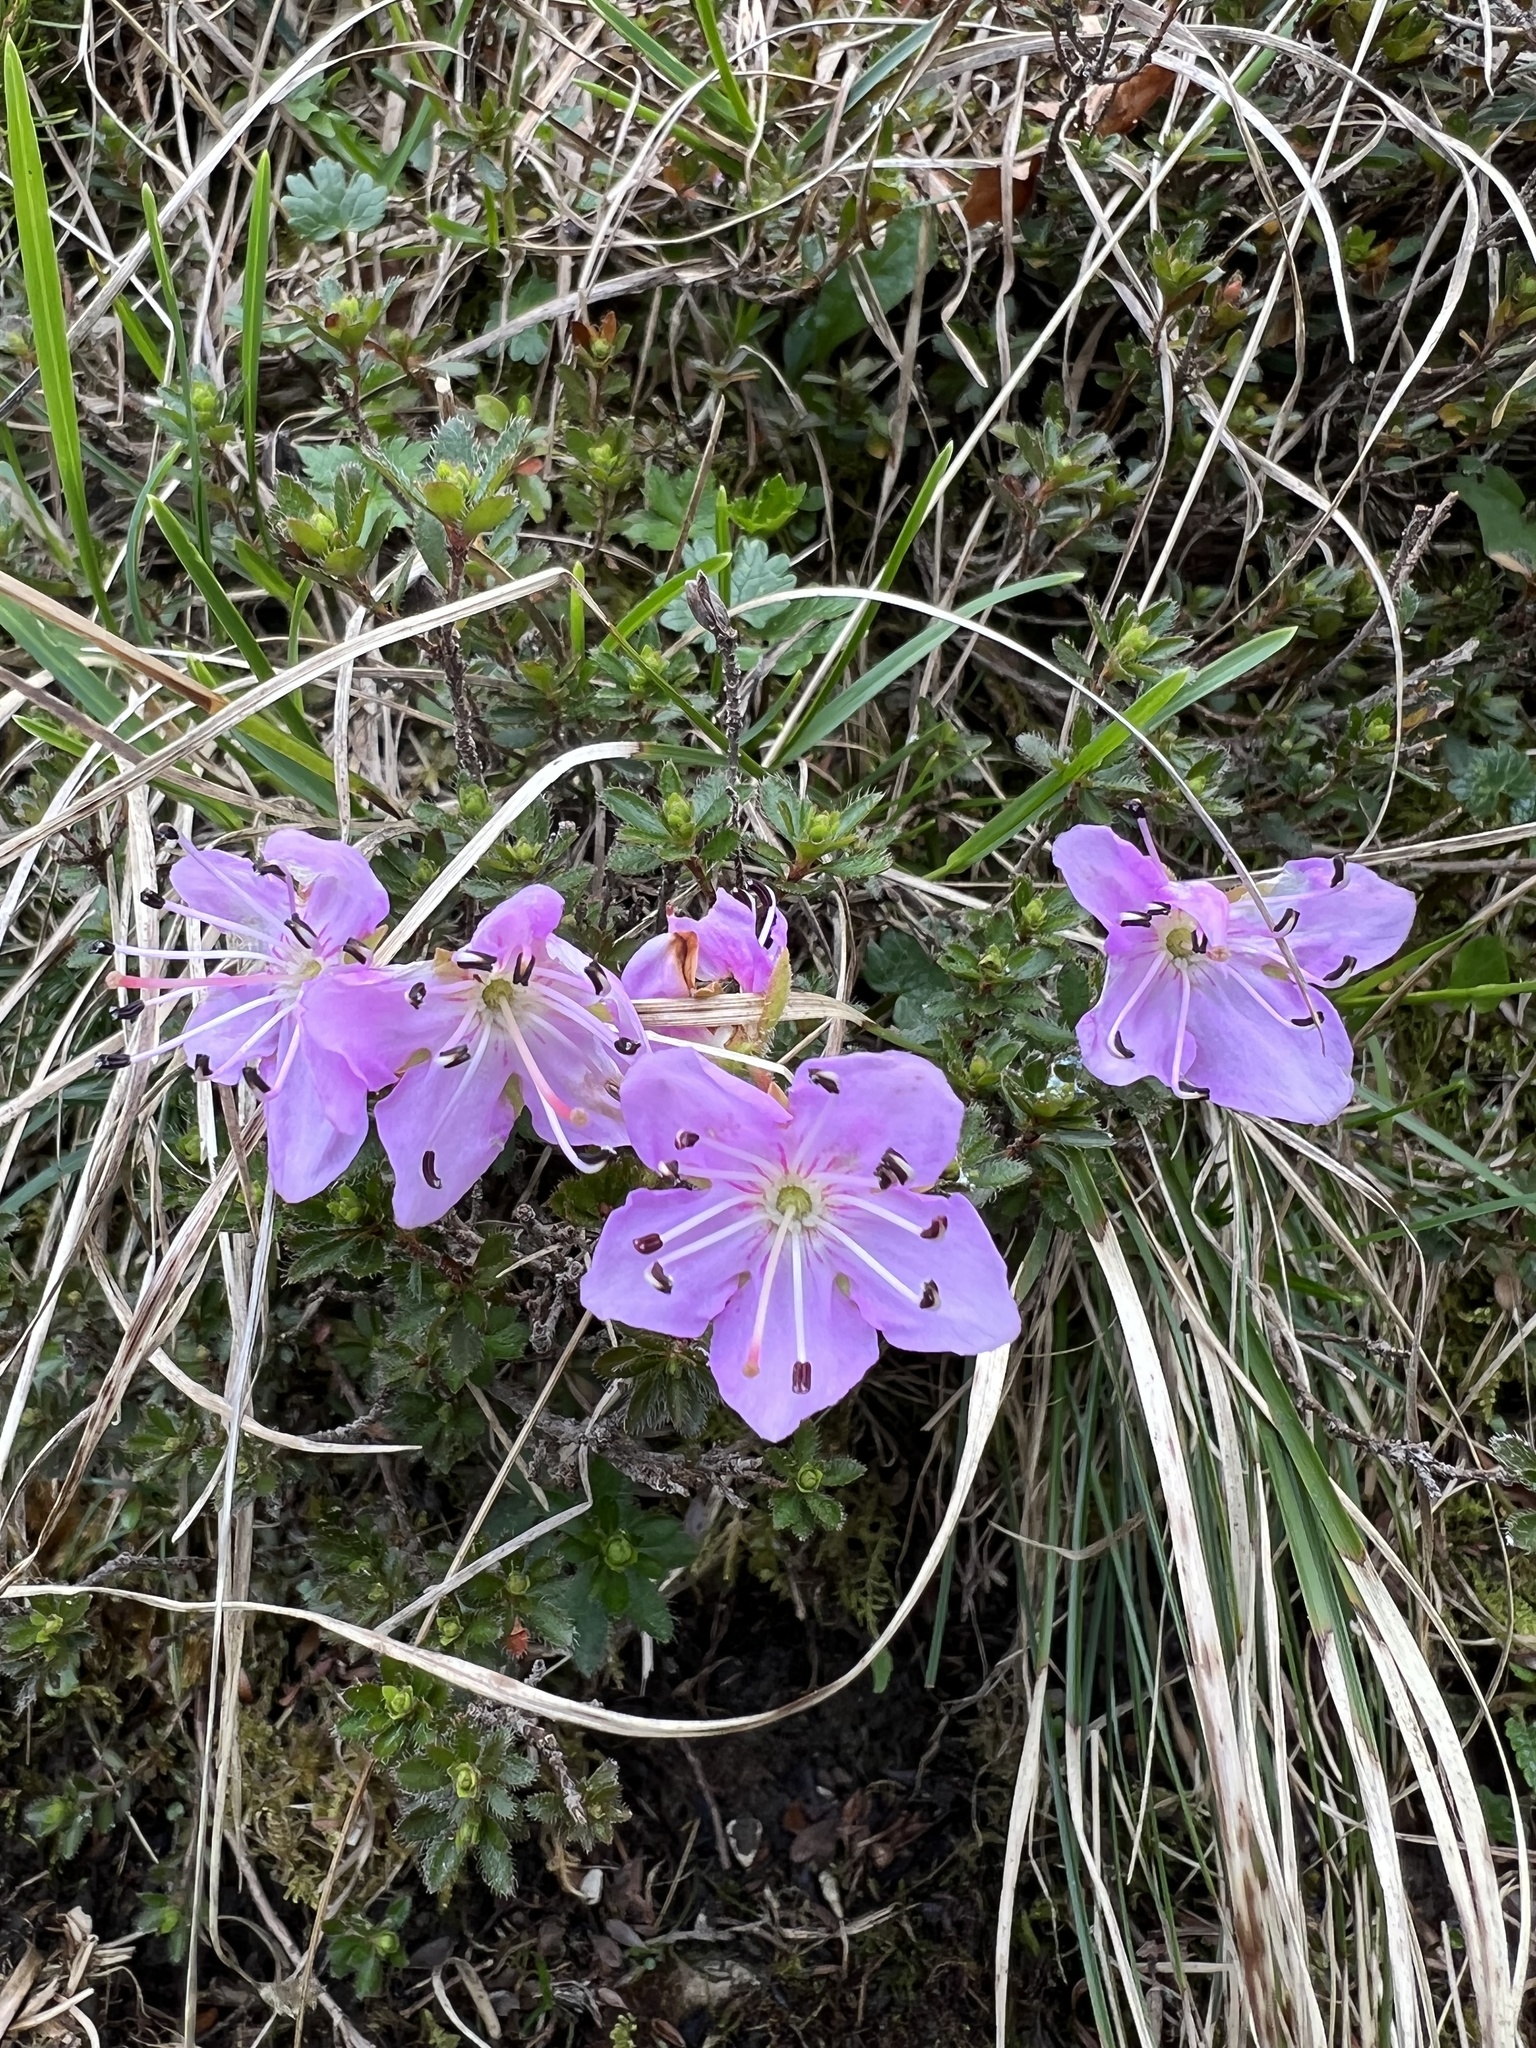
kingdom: Plantae
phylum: Tracheophyta
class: Magnoliopsida
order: Ericales
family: Ericaceae
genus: Rhodothamnus
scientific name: Rhodothamnus chamaecistus
